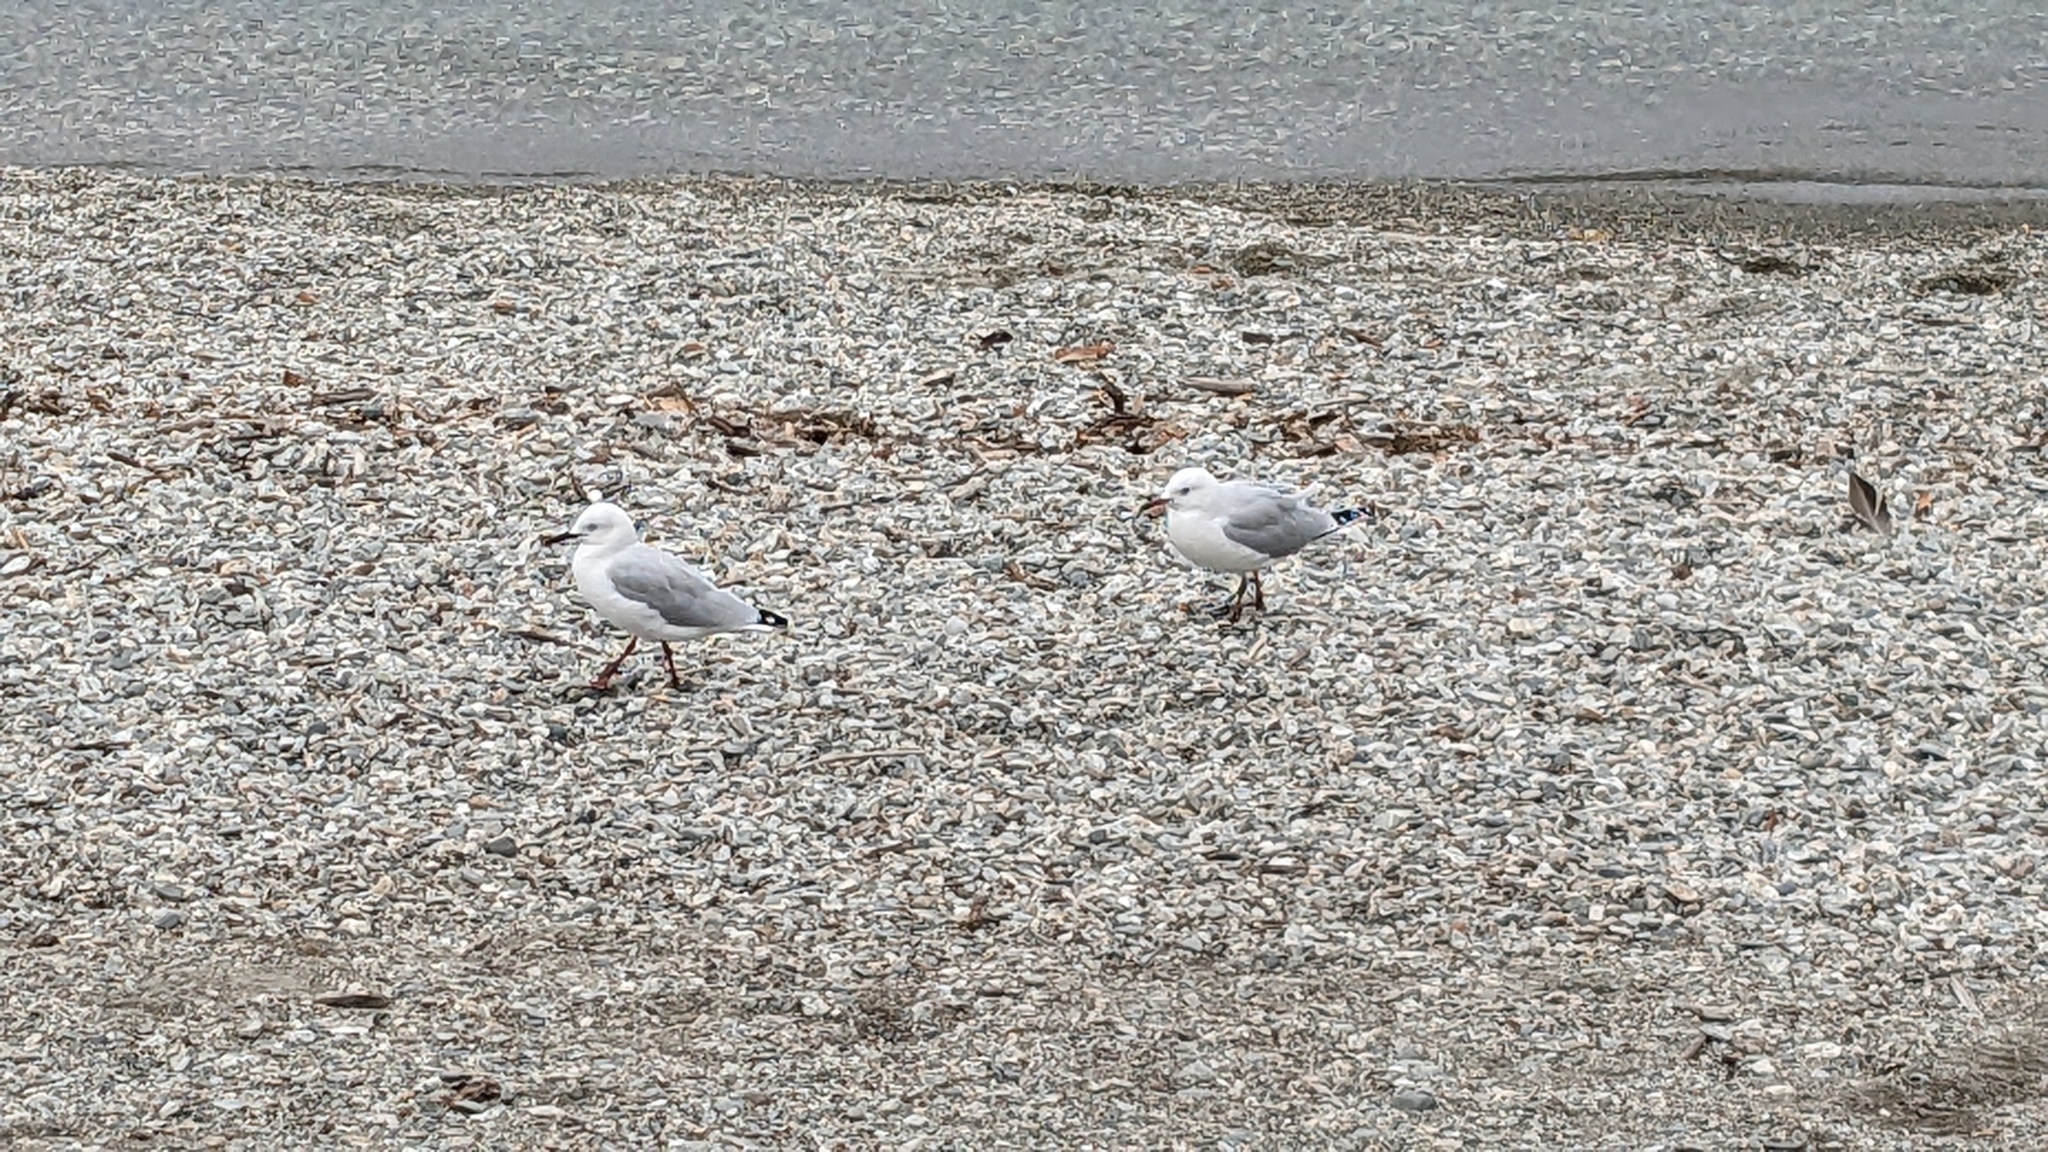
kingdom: Animalia
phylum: Chordata
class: Aves
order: Charadriiformes
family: Laridae
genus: Chroicocephalus
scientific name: Chroicocephalus bulleri
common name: Black-billed gull
